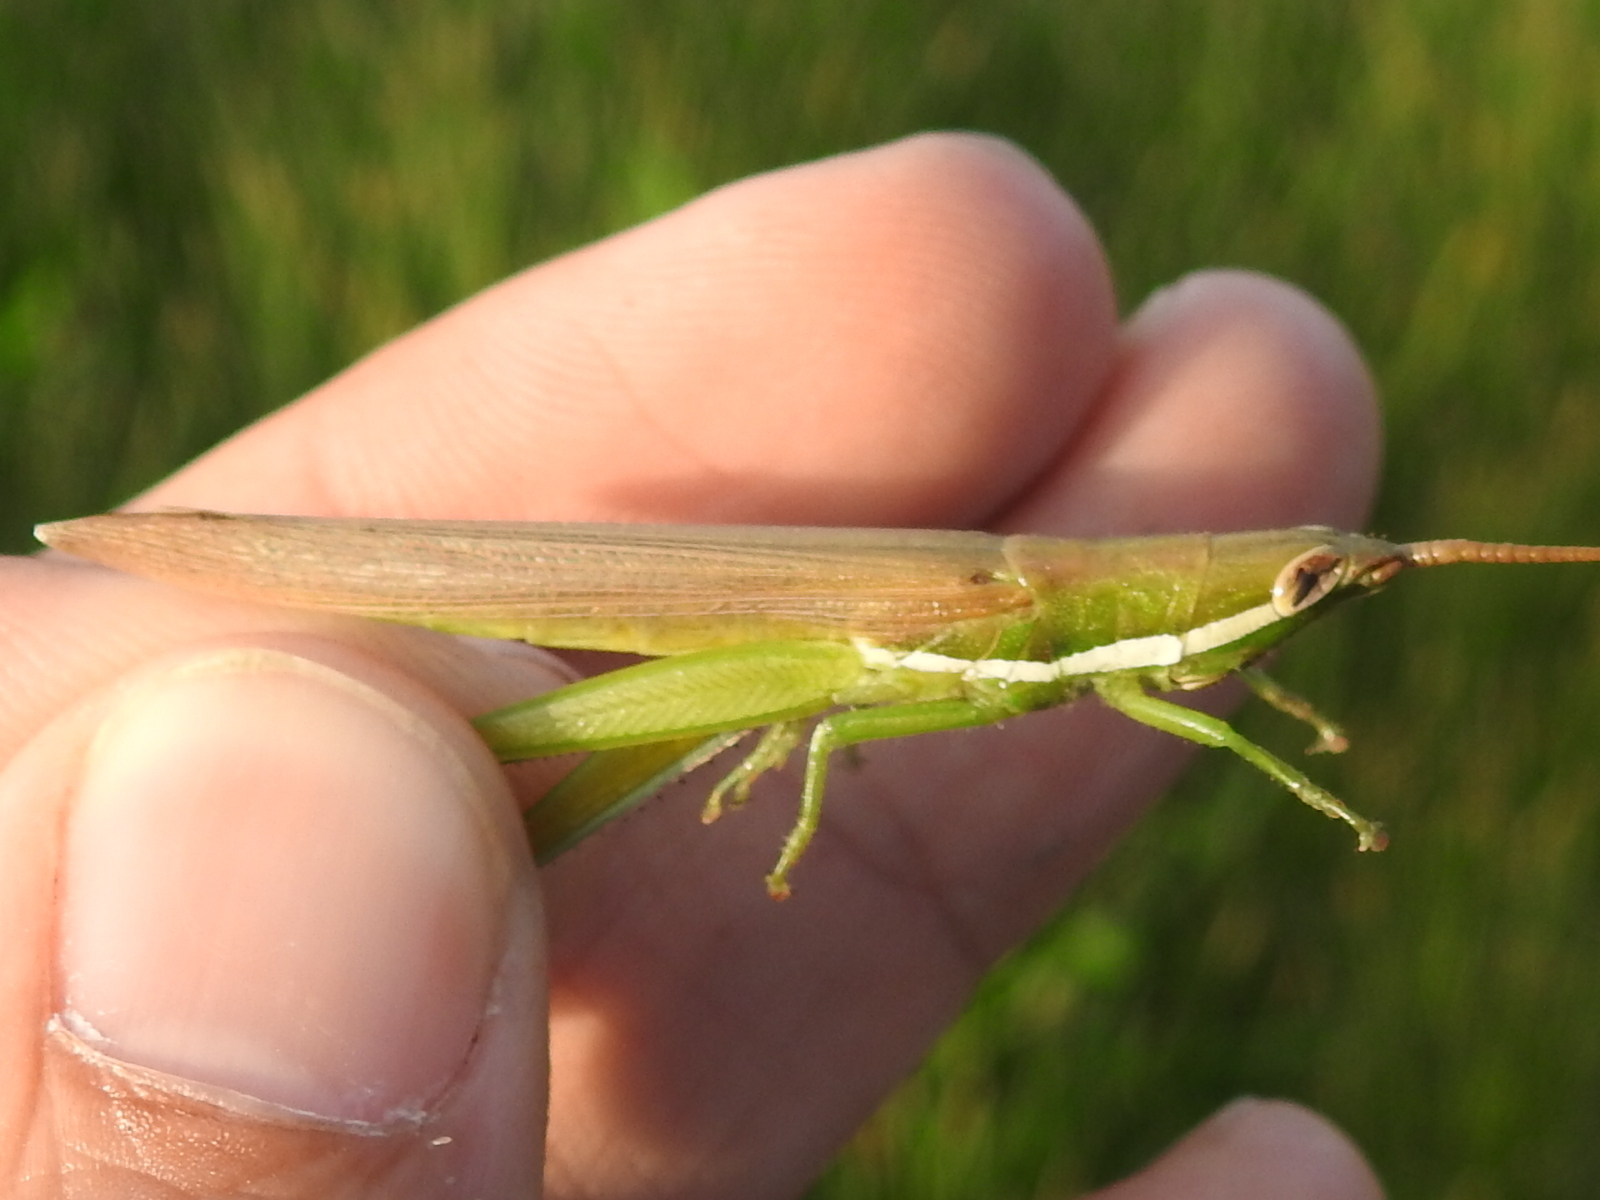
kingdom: Animalia
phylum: Arthropoda
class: Insecta
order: Orthoptera
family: Acrididae
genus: Leptysma
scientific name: Leptysma marginicollis
